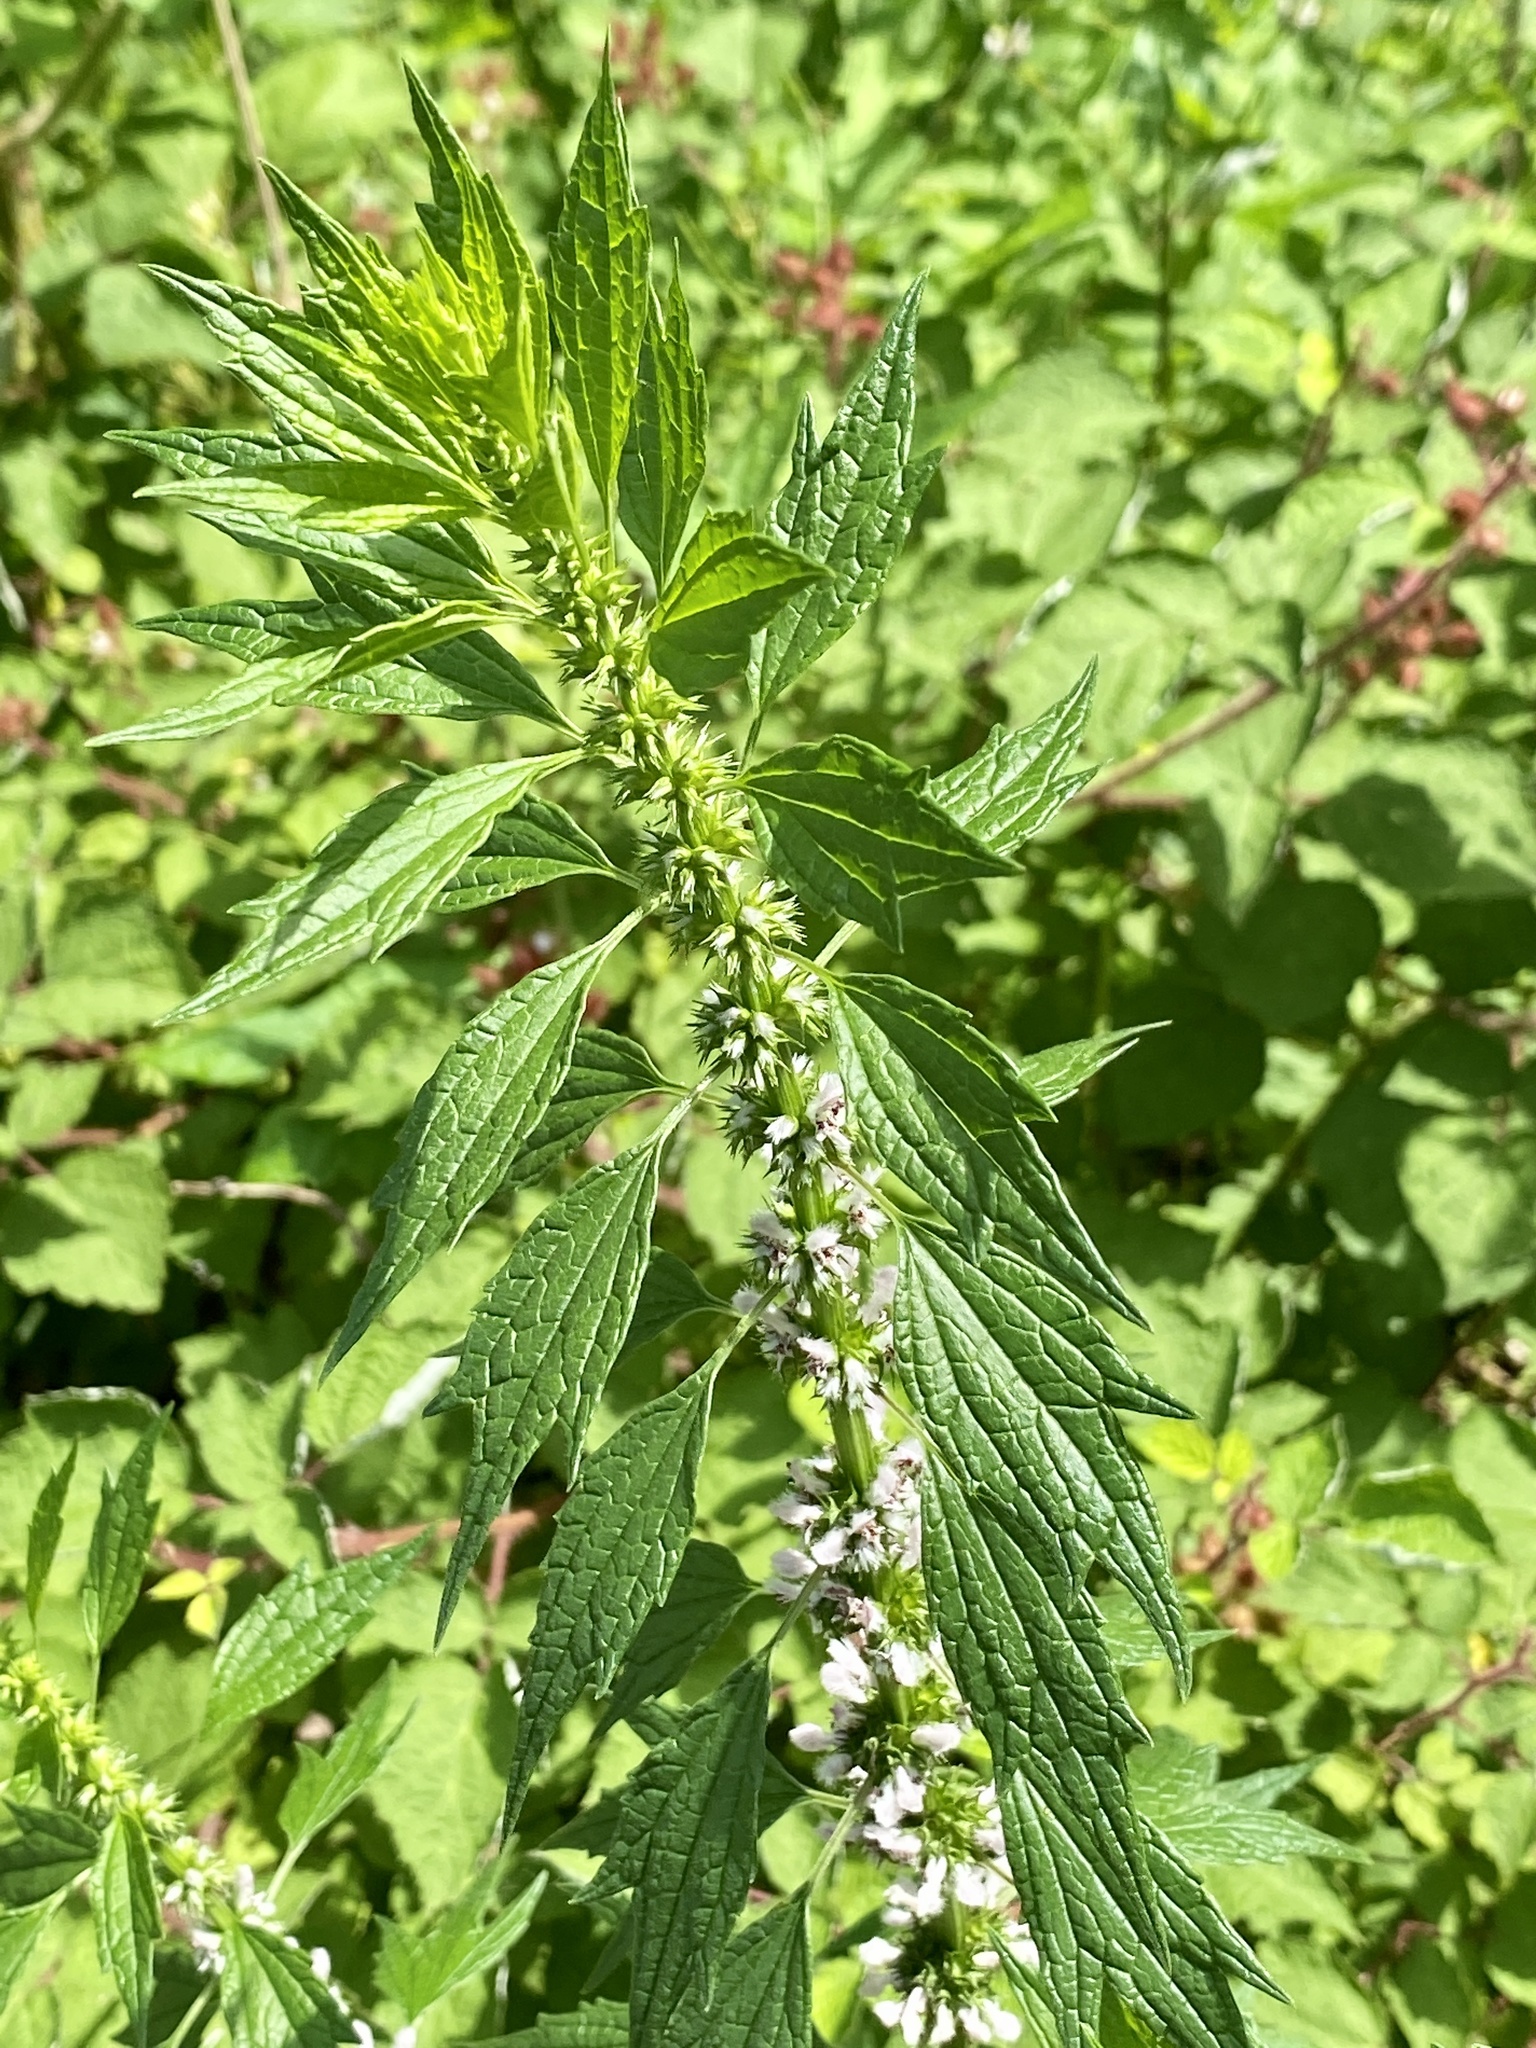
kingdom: Plantae
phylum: Tracheophyta
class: Magnoliopsida
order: Lamiales
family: Lamiaceae
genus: Leonurus
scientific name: Leonurus cardiaca
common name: Motherwort
